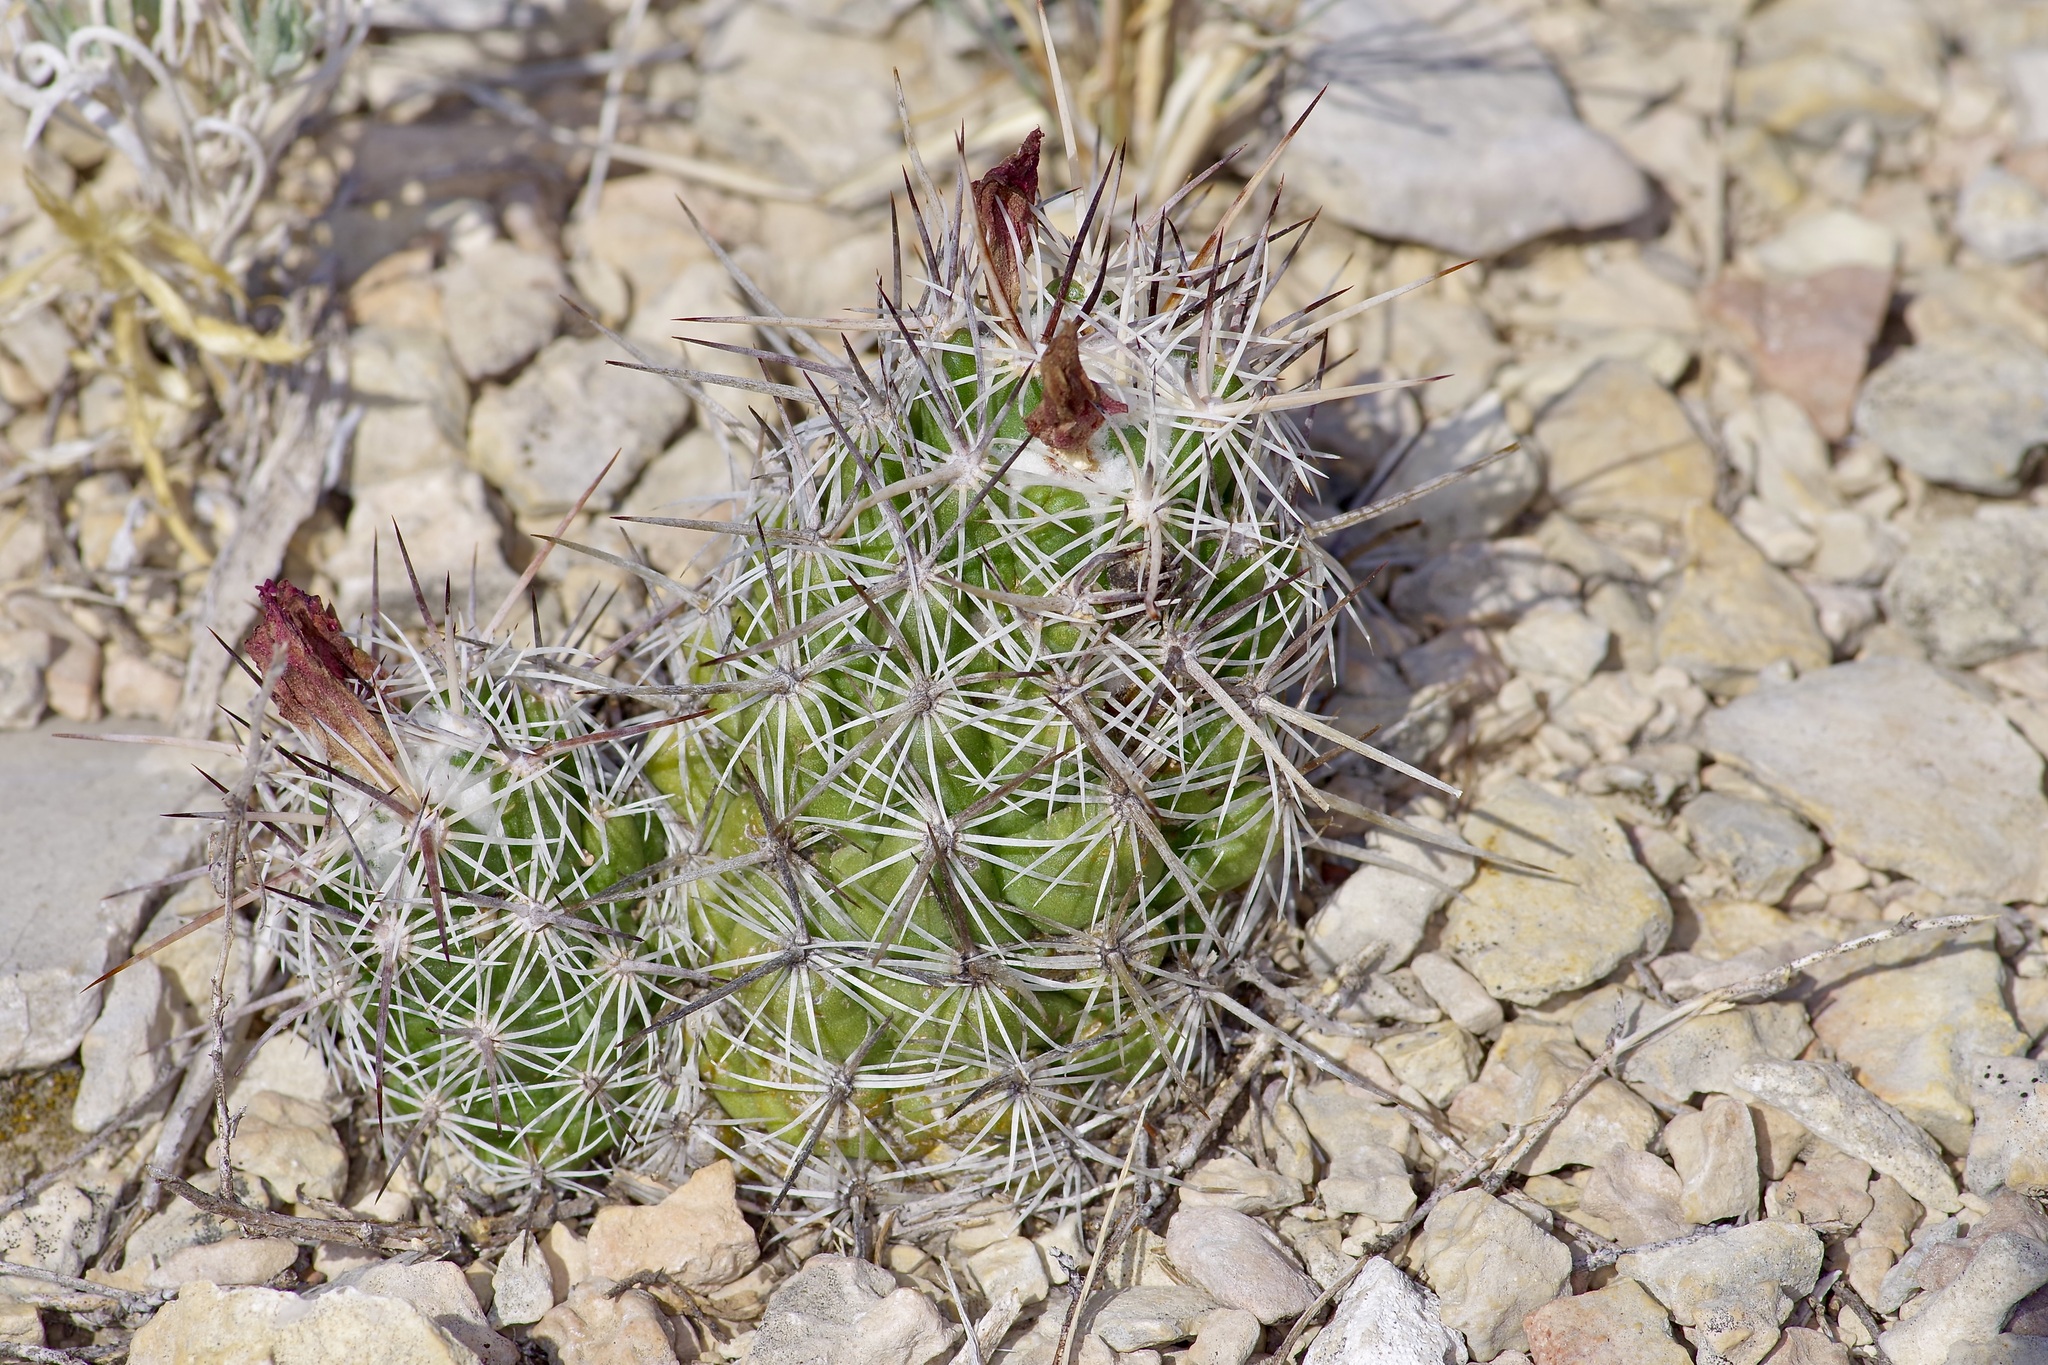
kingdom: Plantae
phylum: Tracheophyta
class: Magnoliopsida
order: Caryophyllales
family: Cactaceae
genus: Cochemiea
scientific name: Cochemiea conoidea
